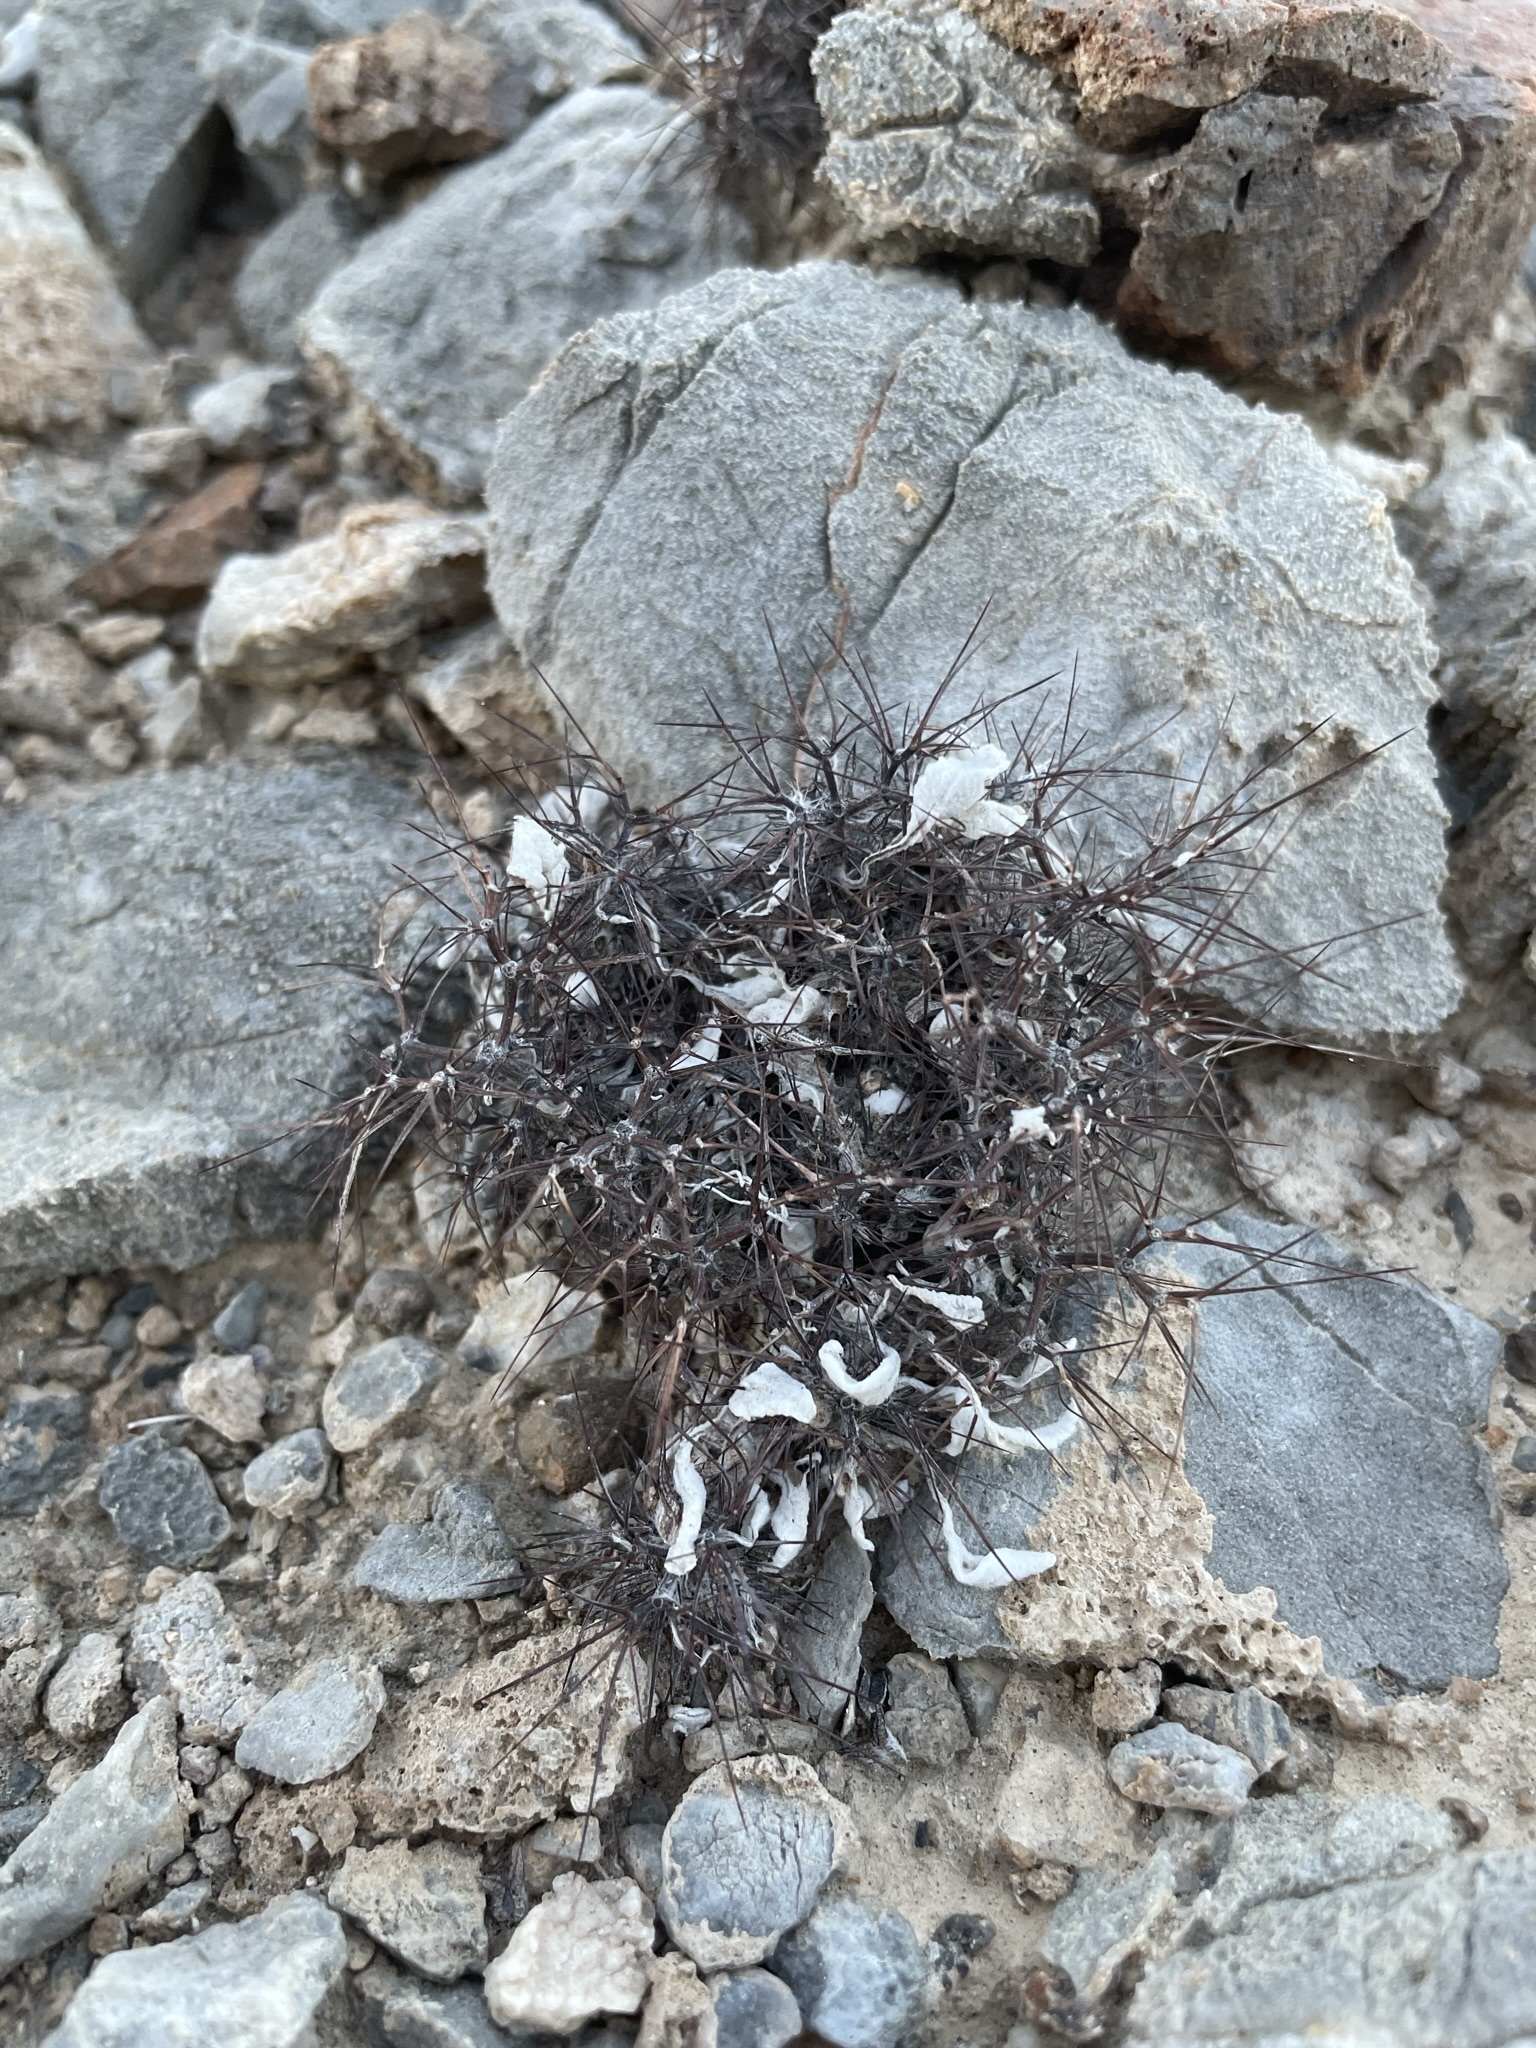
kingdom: Plantae
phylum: Tracheophyta
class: Magnoliopsida
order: Caryophyllales
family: Polygonaceae
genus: Chorizanthe
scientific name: Chorizanthe rigida
